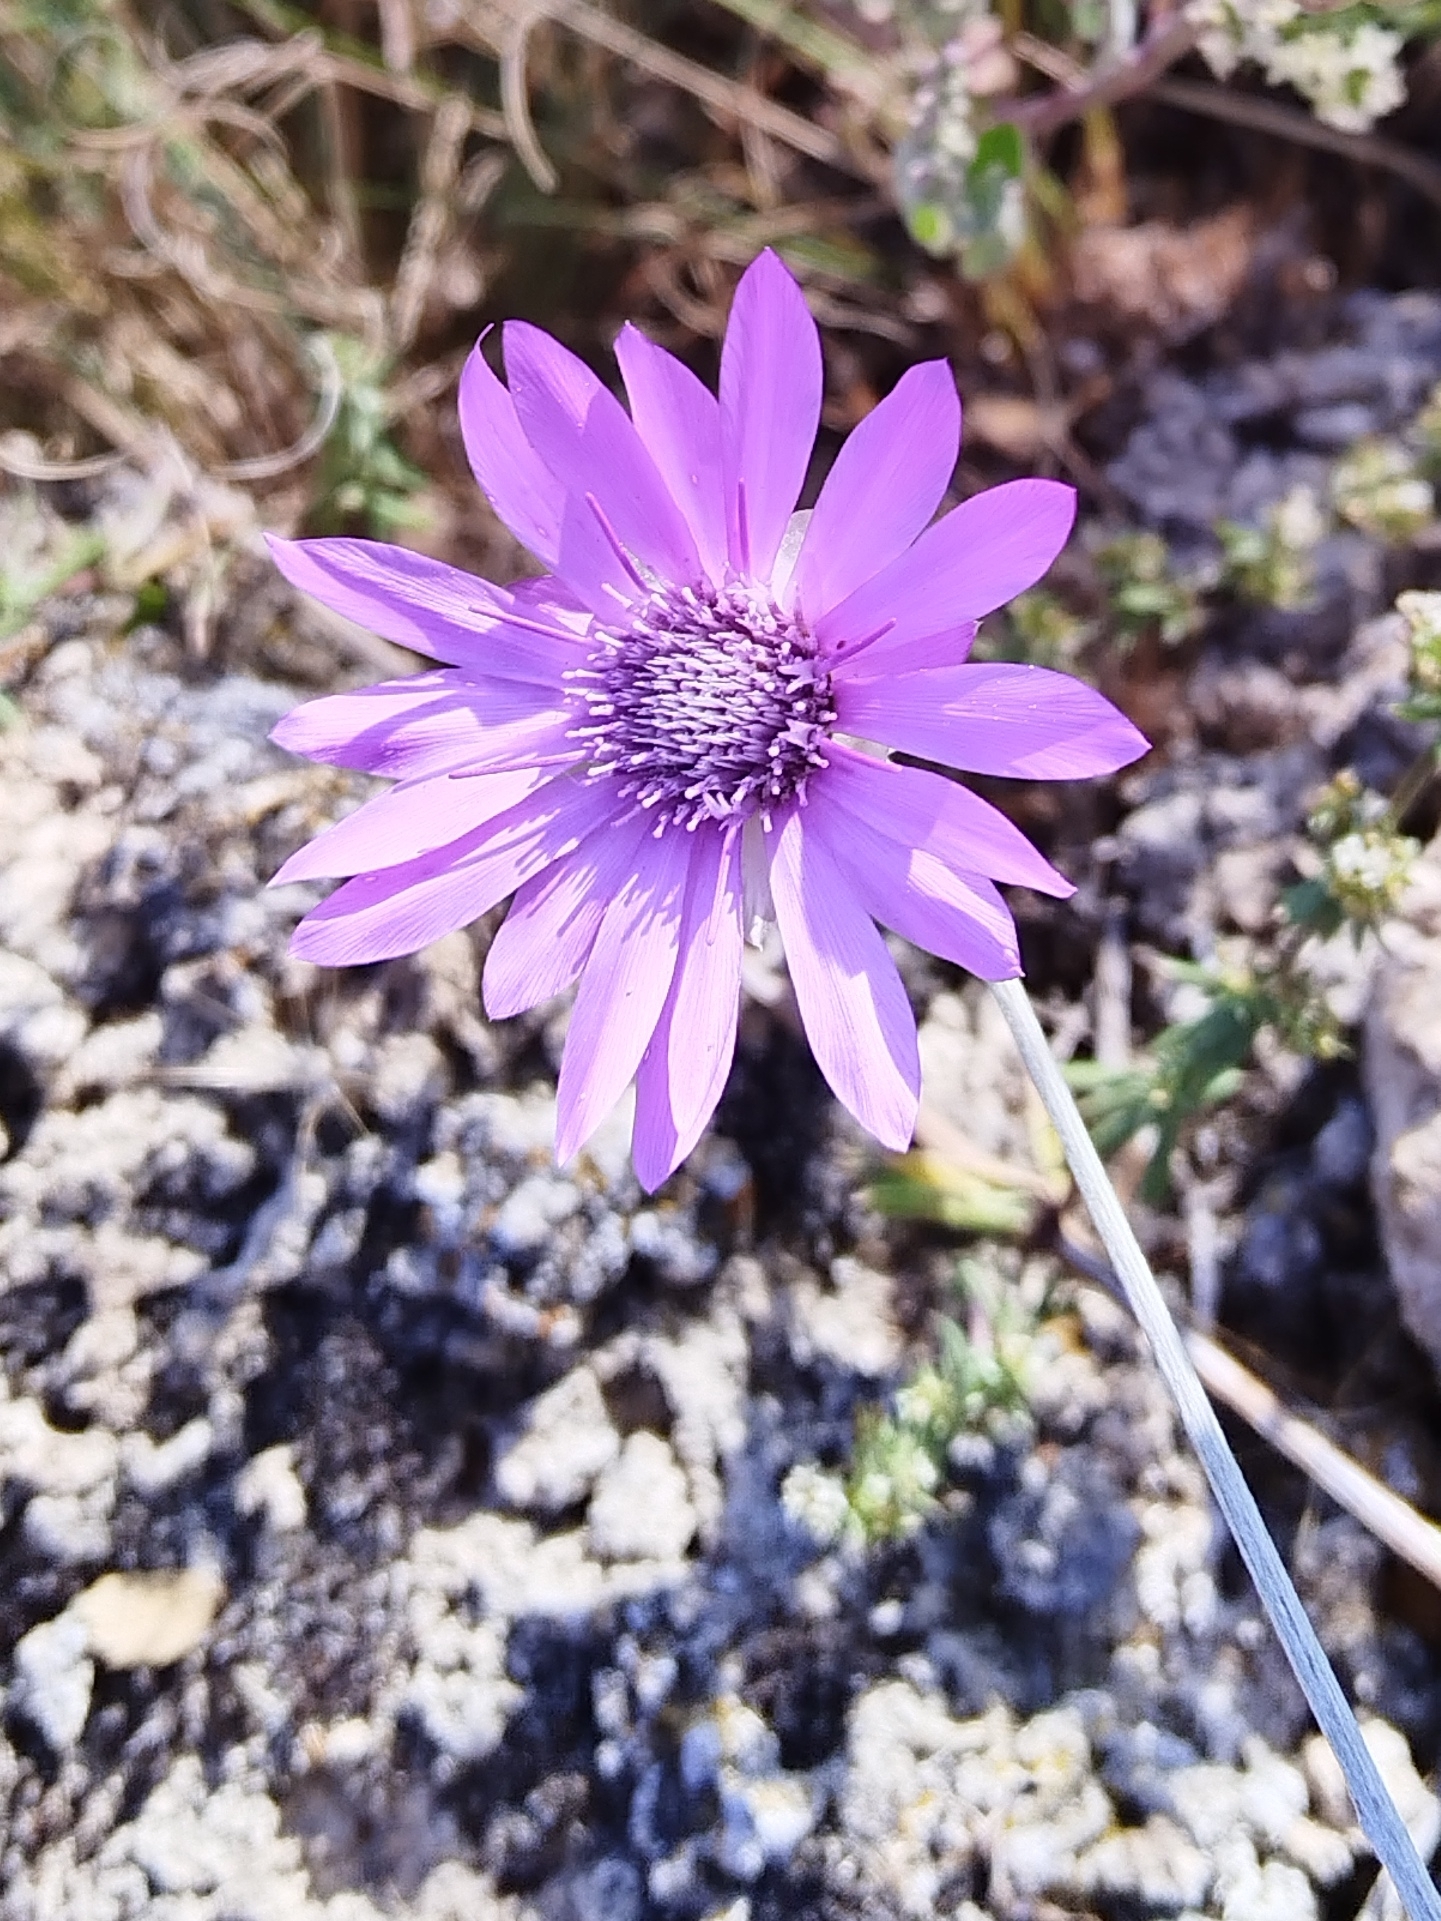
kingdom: Plantae
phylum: Tracheophyta
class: Magnoliopsida
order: Asterales
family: Asteraceae
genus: Xeranthemum
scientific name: Xeranthemum annuum
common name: Immortelle
